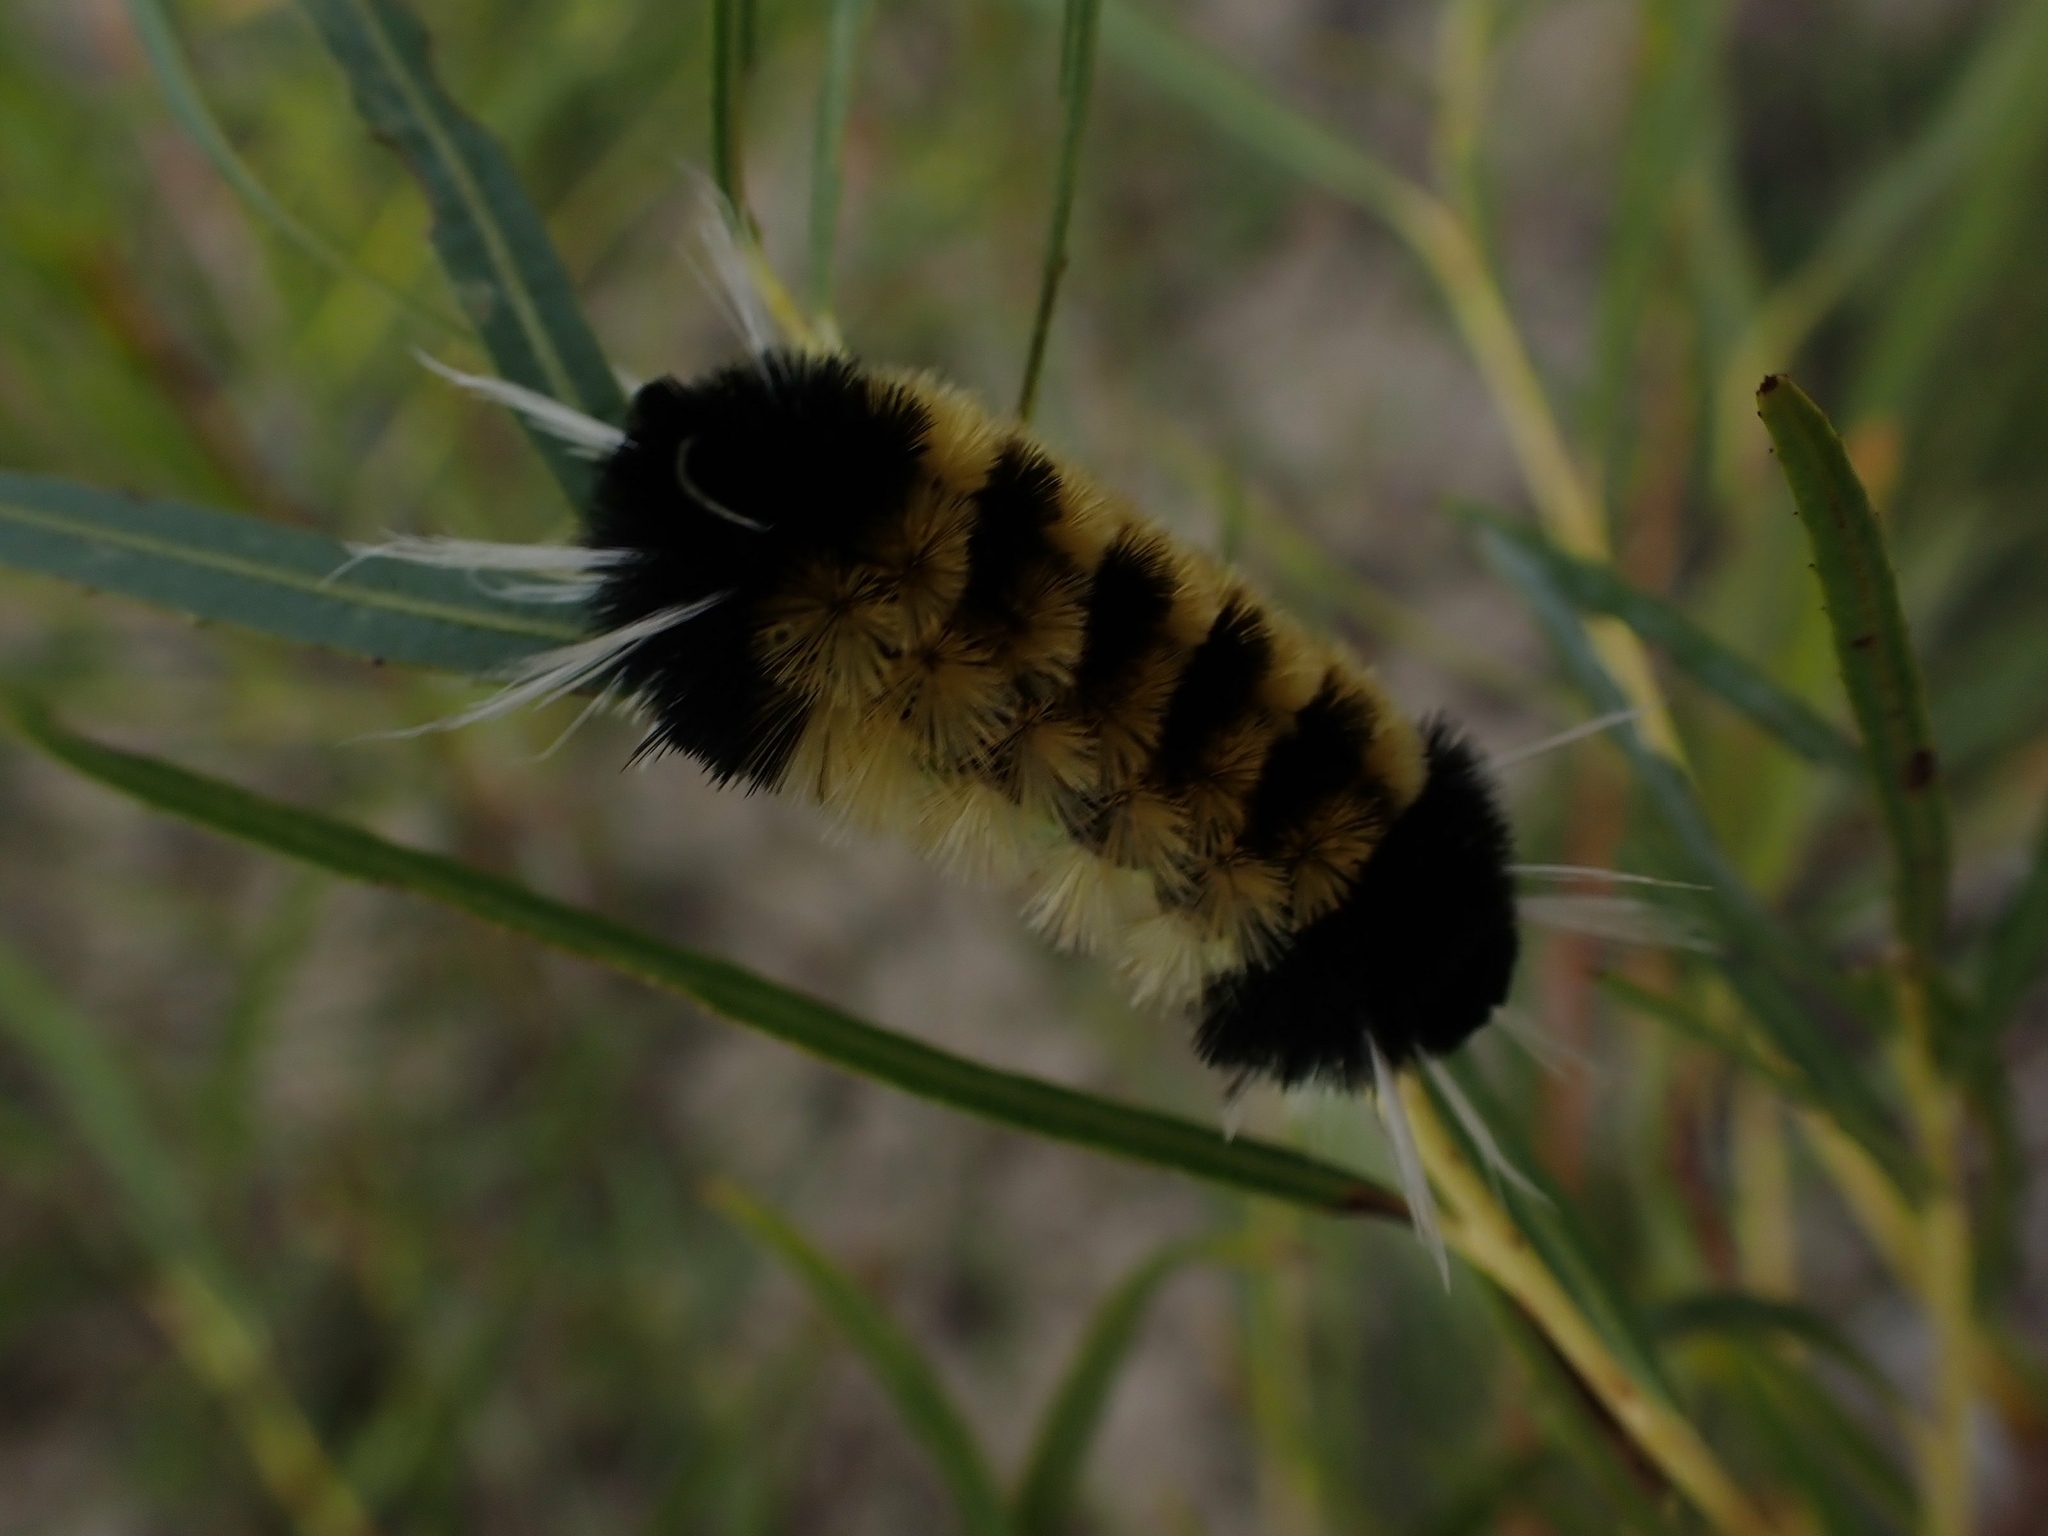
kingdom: Animalia
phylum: Arthropoda
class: Insecta
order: Lepidoptera
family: Erebidae
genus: Lophocampa
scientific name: Lophocampa maculata
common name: Spotted tussock moth
